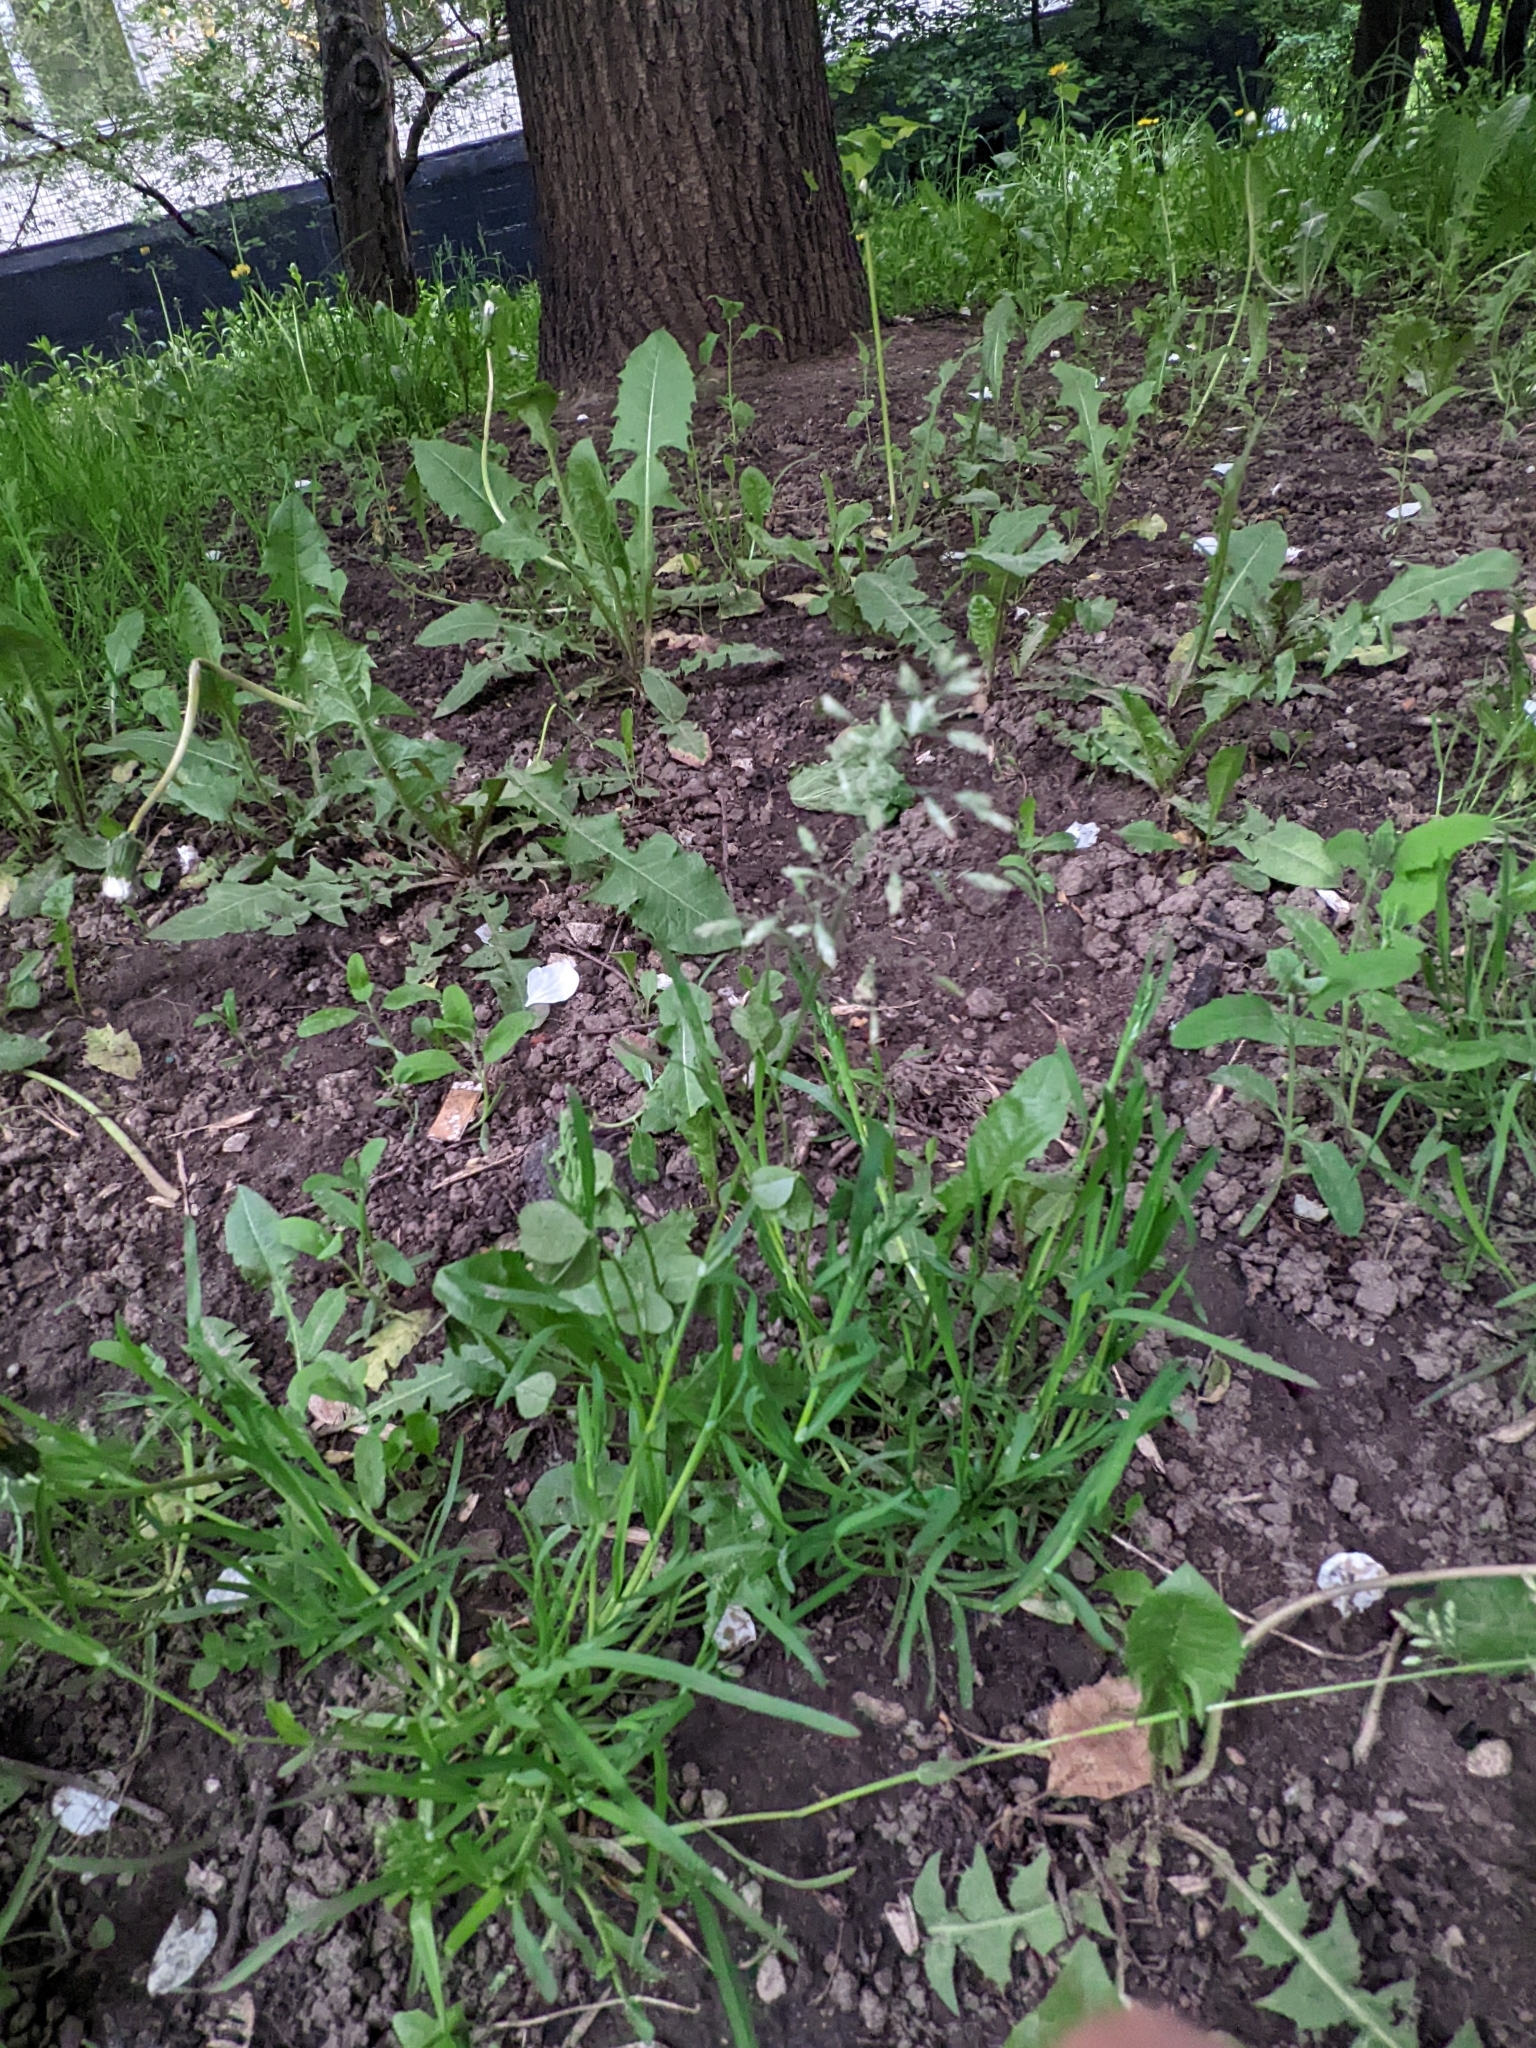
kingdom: Plantae
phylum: Tracheophyta
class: Liliopsida
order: Poales
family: Poaceae
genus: Poa
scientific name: Poa annua
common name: Annual bluegrass
